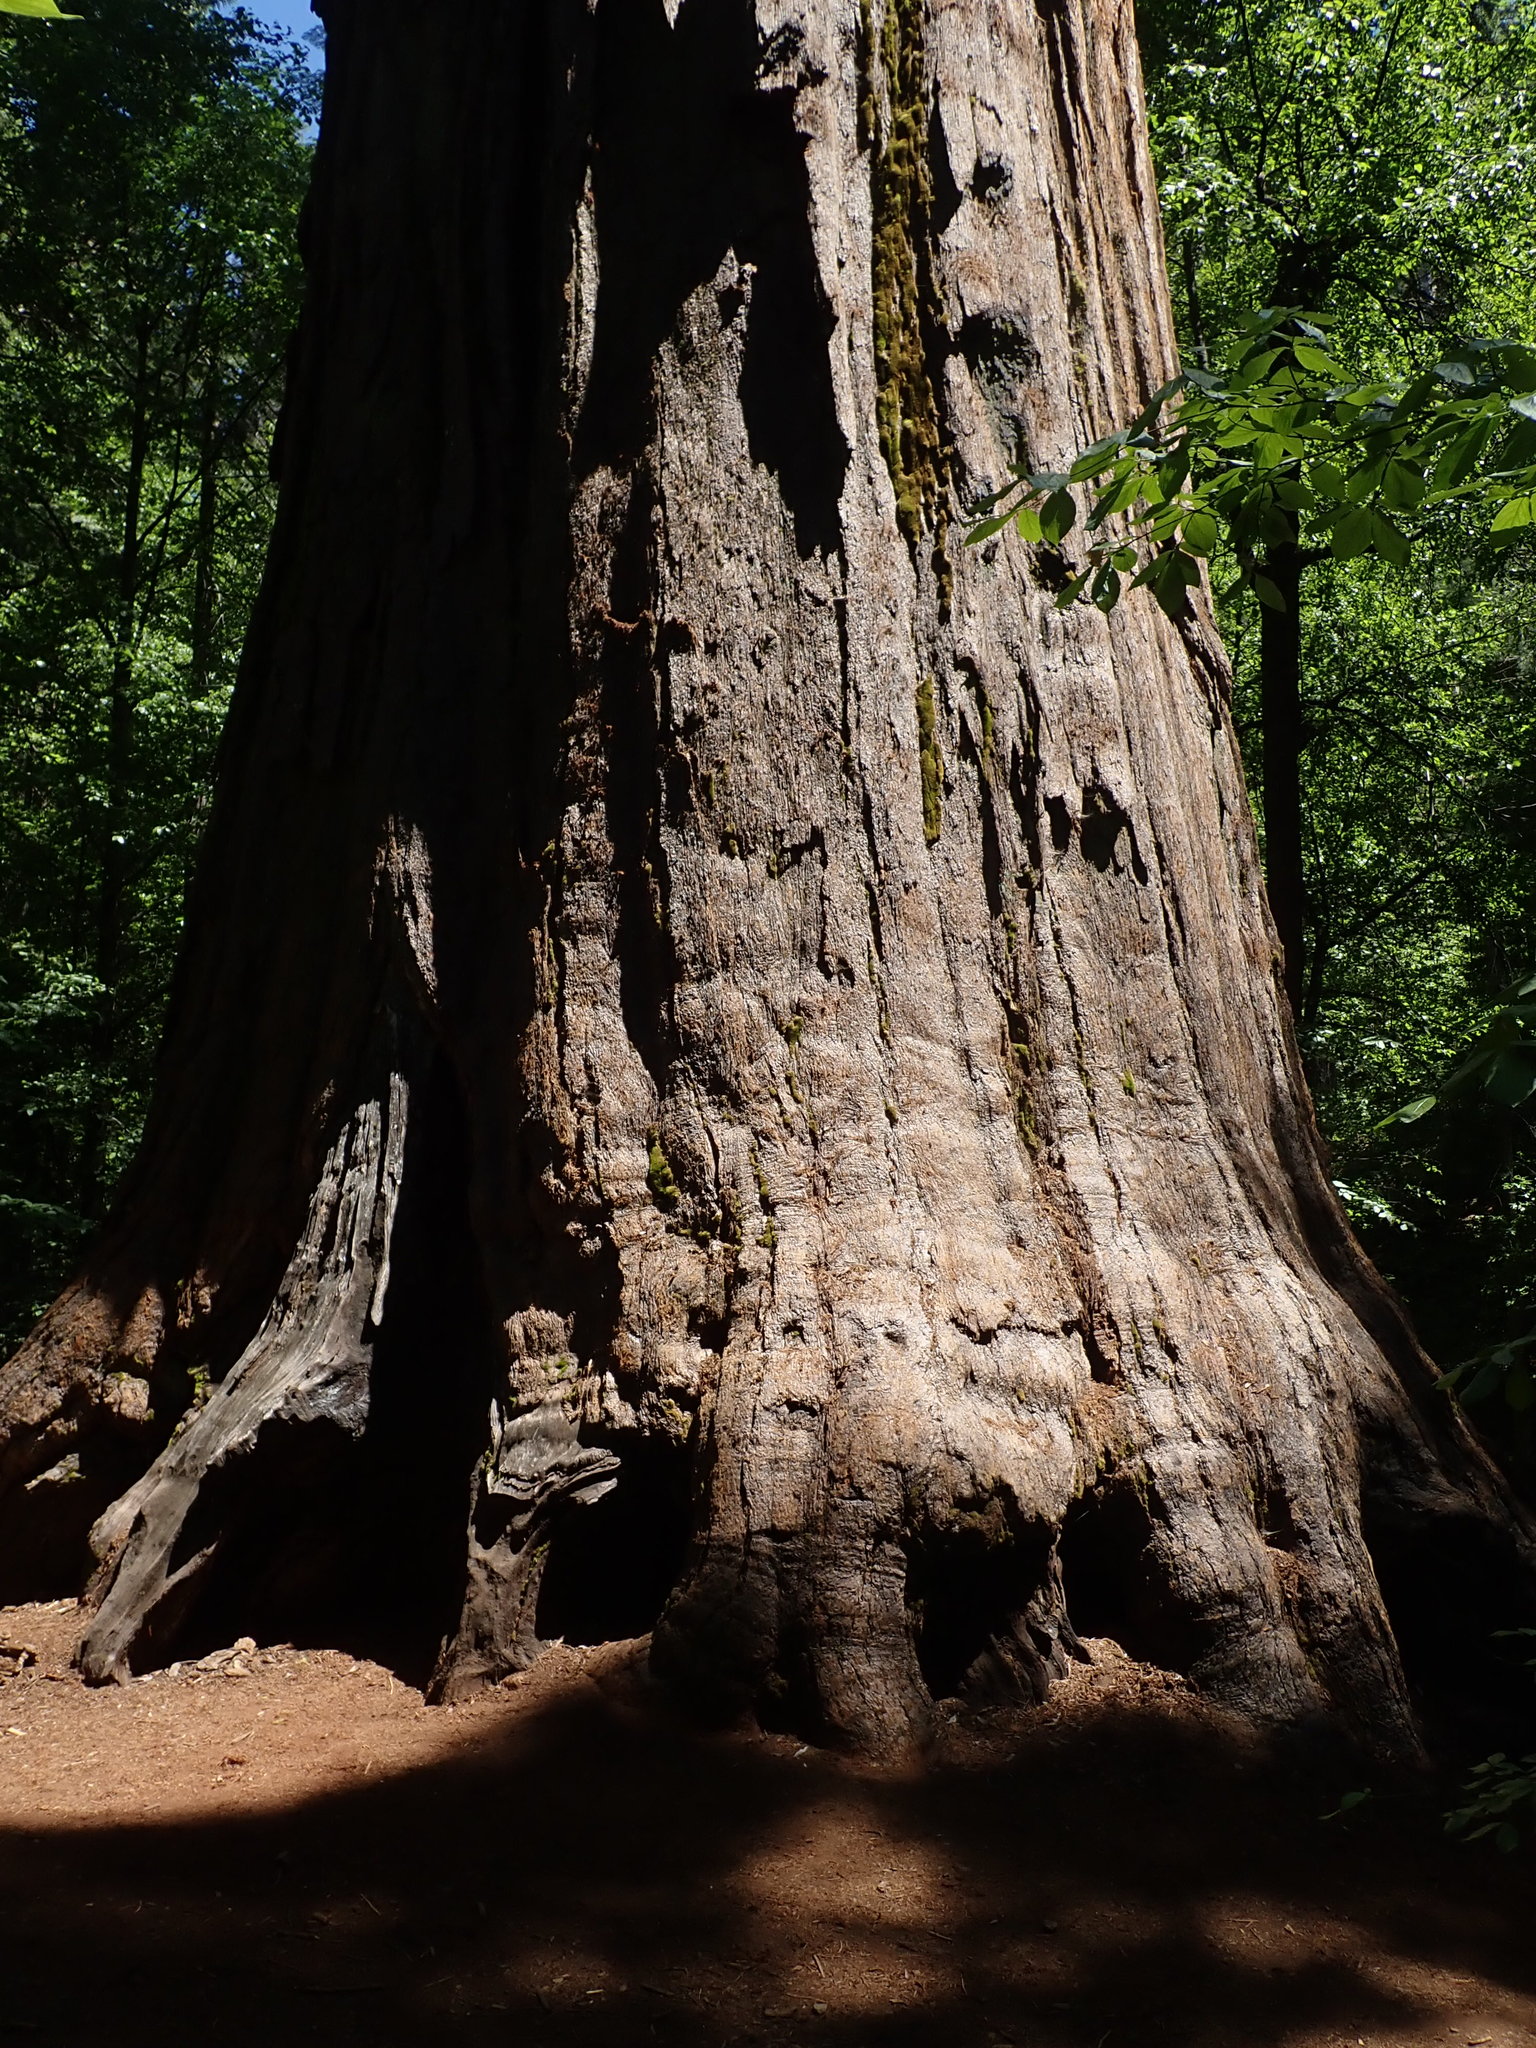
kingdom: Plantae
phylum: Tracheophyta
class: Pinopsida
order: Pinales
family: Cupressaceae
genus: Sequoiadendron
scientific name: Sequoiadendron giganteum
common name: Wellingtonia
